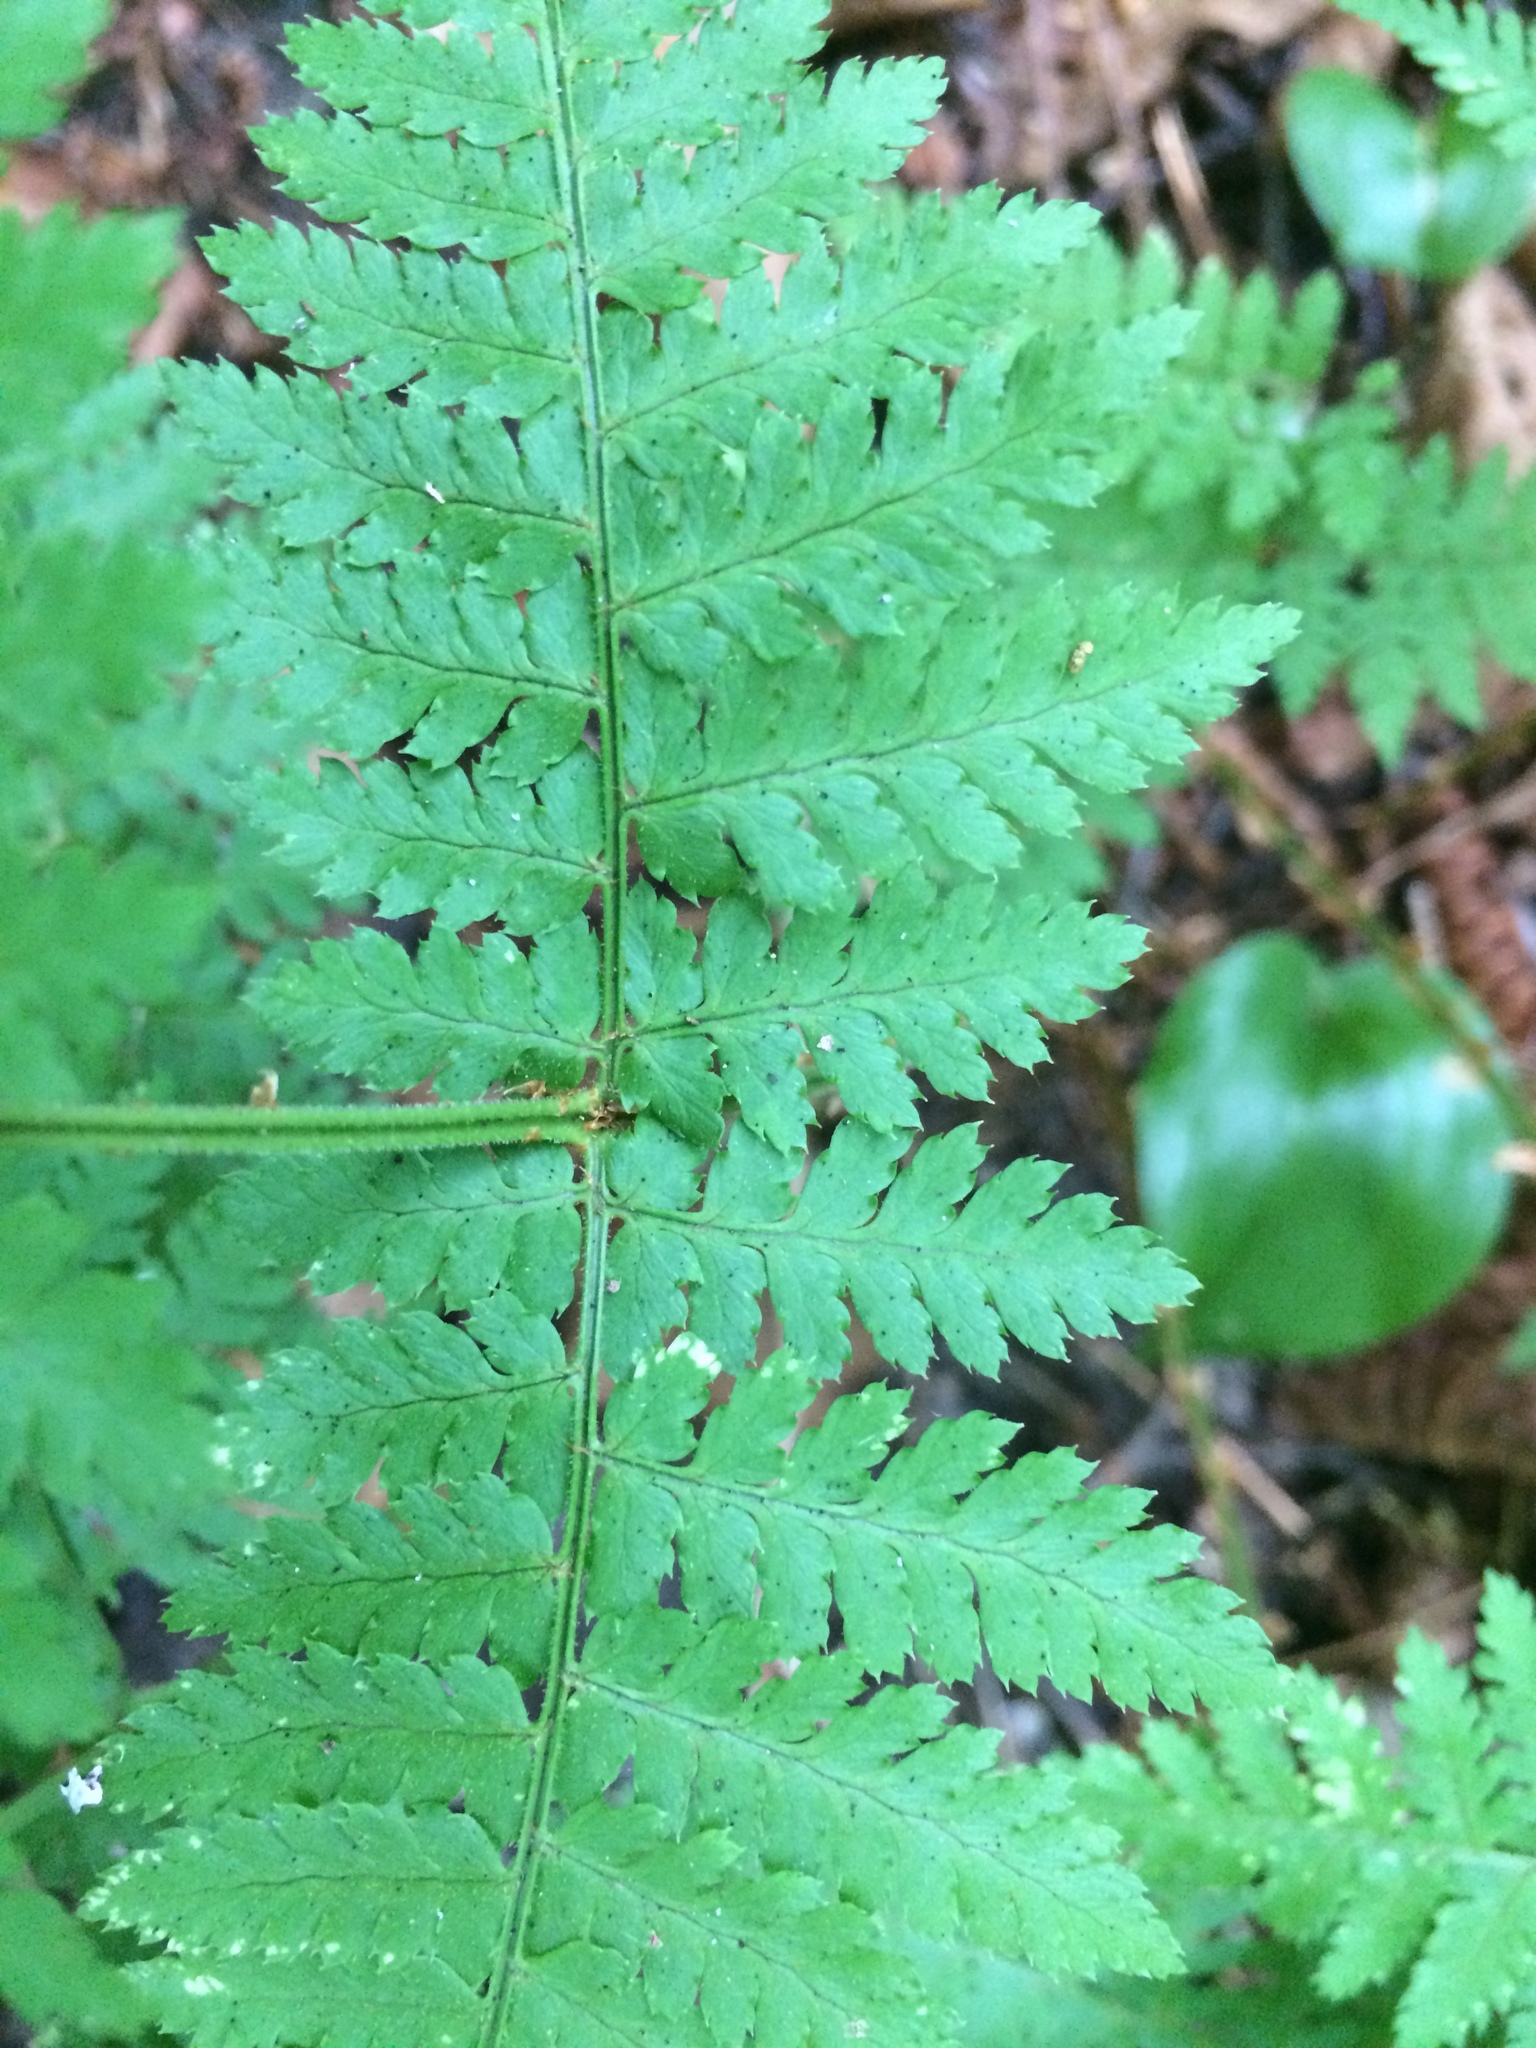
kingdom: Plantae
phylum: Tracheophyta
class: Polypodiopsida
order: Polypodiales
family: Dryopteridaceae
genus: Dryopteris
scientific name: Dryopteris intermedia
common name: Evergreen wood fern
